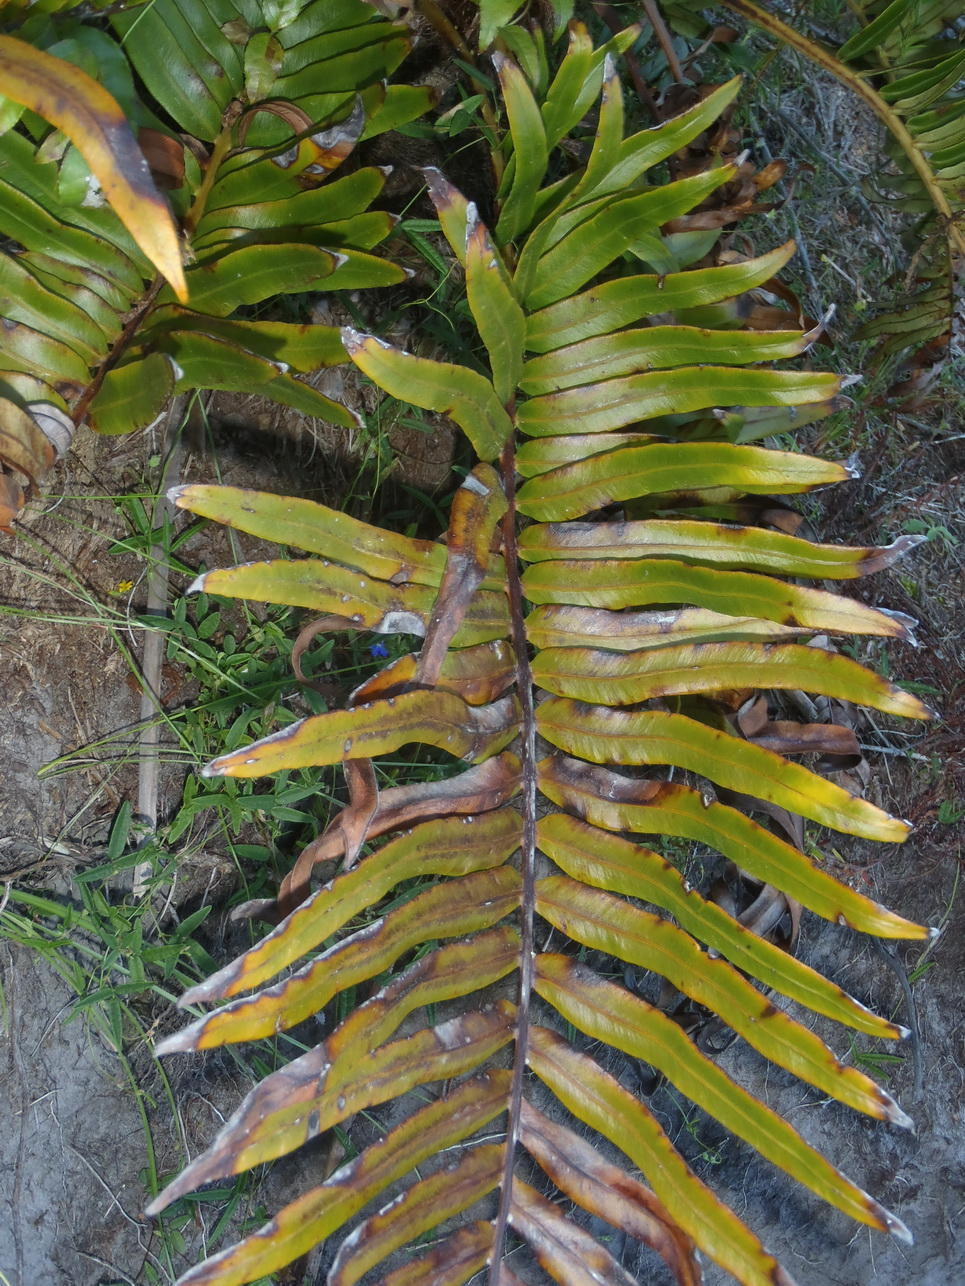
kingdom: Plantae
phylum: Tracheophyta
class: Polypodiopsida
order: Polypodiales
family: Blechnaceae
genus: Lomariocycas
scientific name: Lomariocycas tabularis
